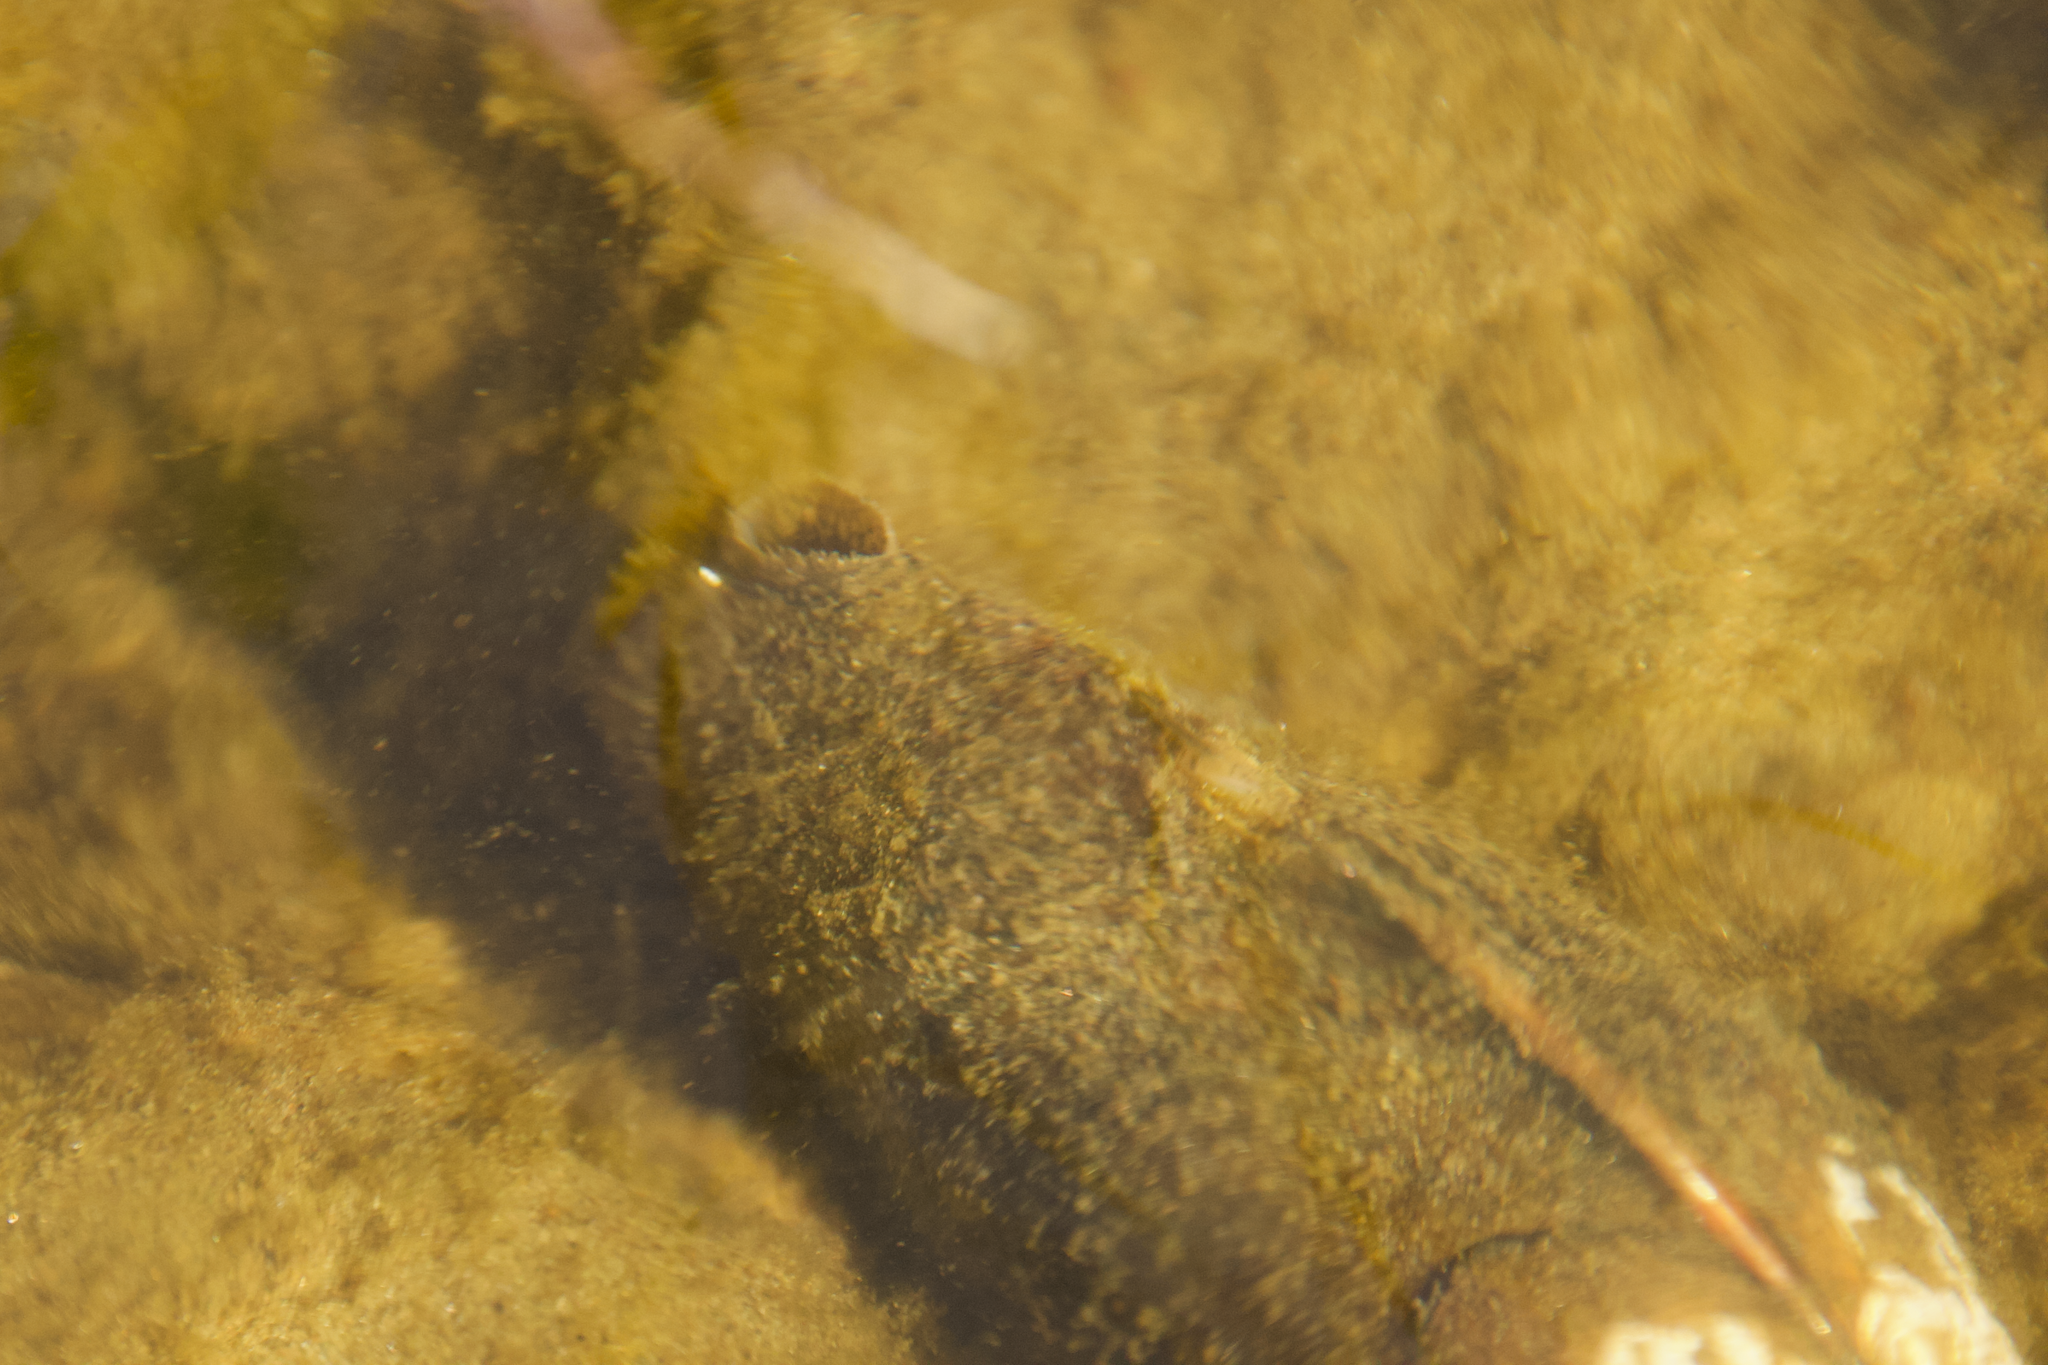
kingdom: Animalia
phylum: Mollusca
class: Bivalvia
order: Unionida
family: Unionidae
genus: Lampsilis
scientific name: Lampsilis radiata
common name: Eastern lampmussel
